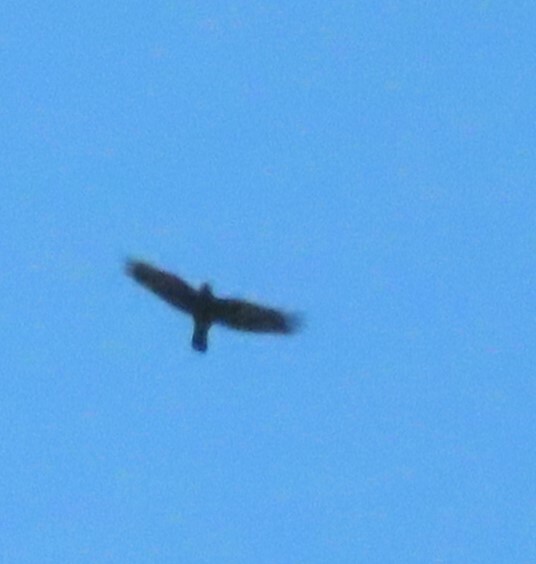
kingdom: Animalia
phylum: Chordata
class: Aves
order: Passeriformes
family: Corvidae
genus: Corvus
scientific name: Corvus brachyrhynchos
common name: American crow
